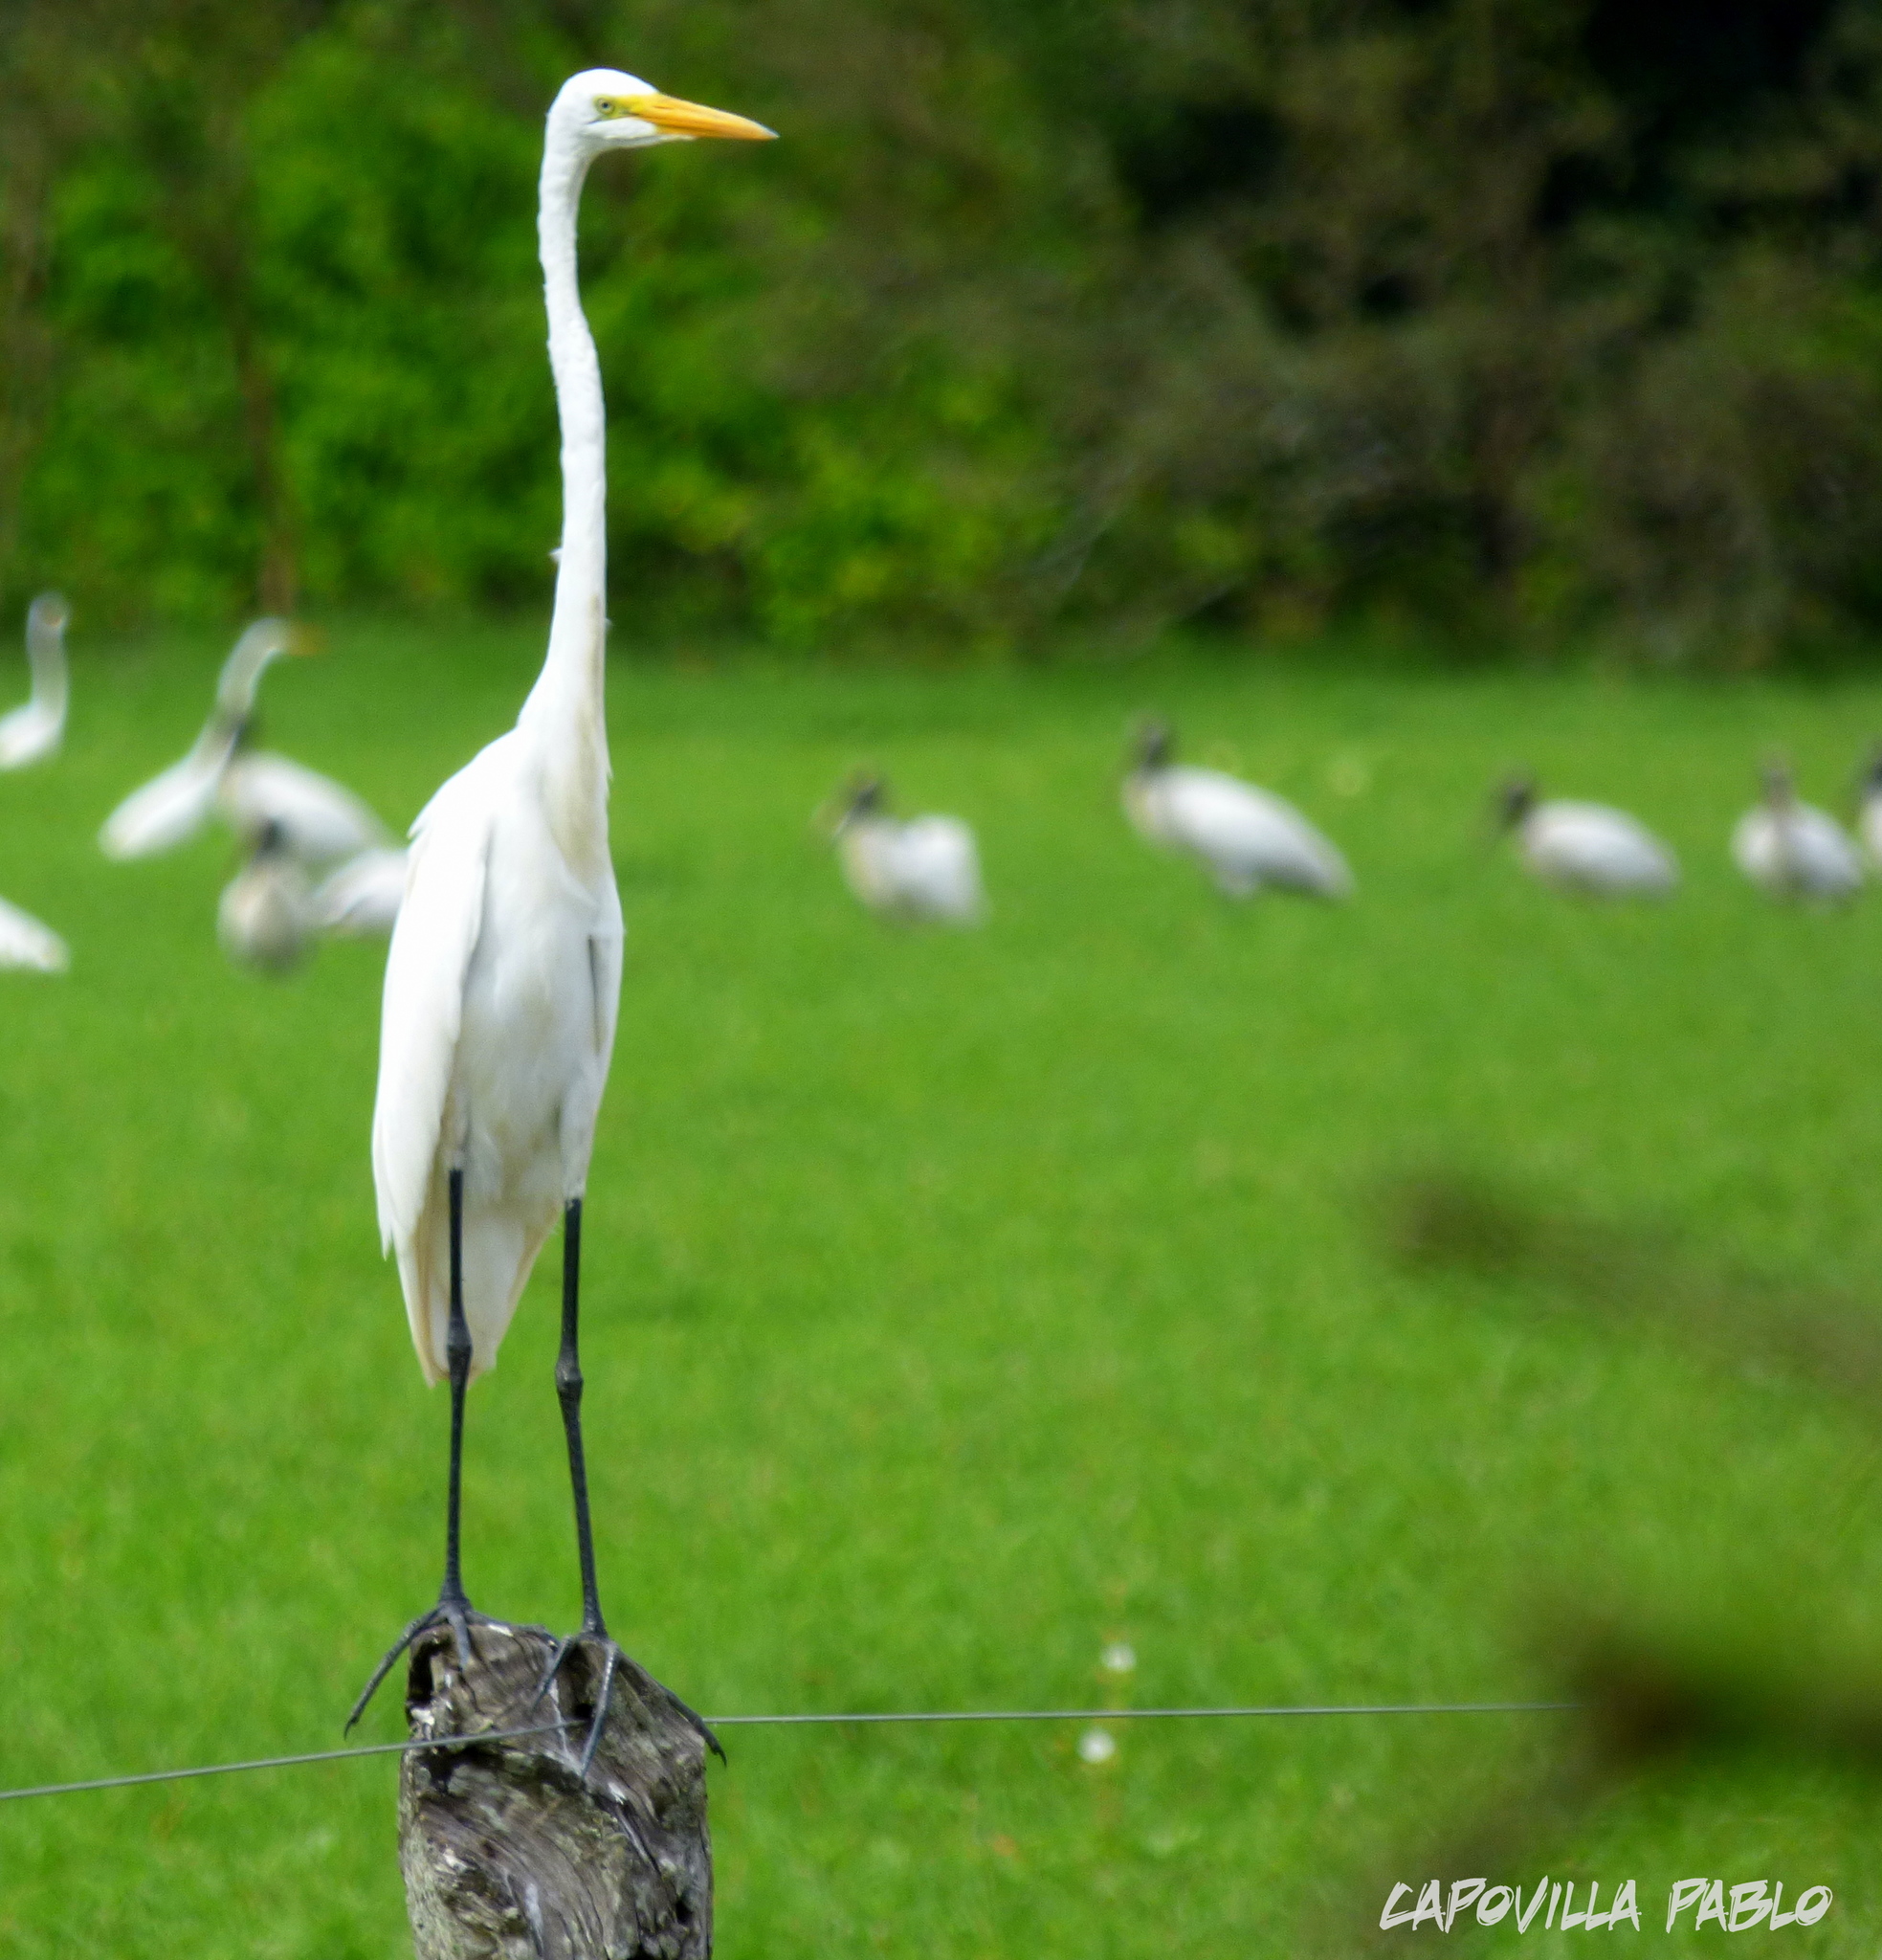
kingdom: Animalia
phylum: Chordata
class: Aves
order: Pelecaniformes
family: Ardeidae
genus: Ardea
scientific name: Ardea alba
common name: Great egret
